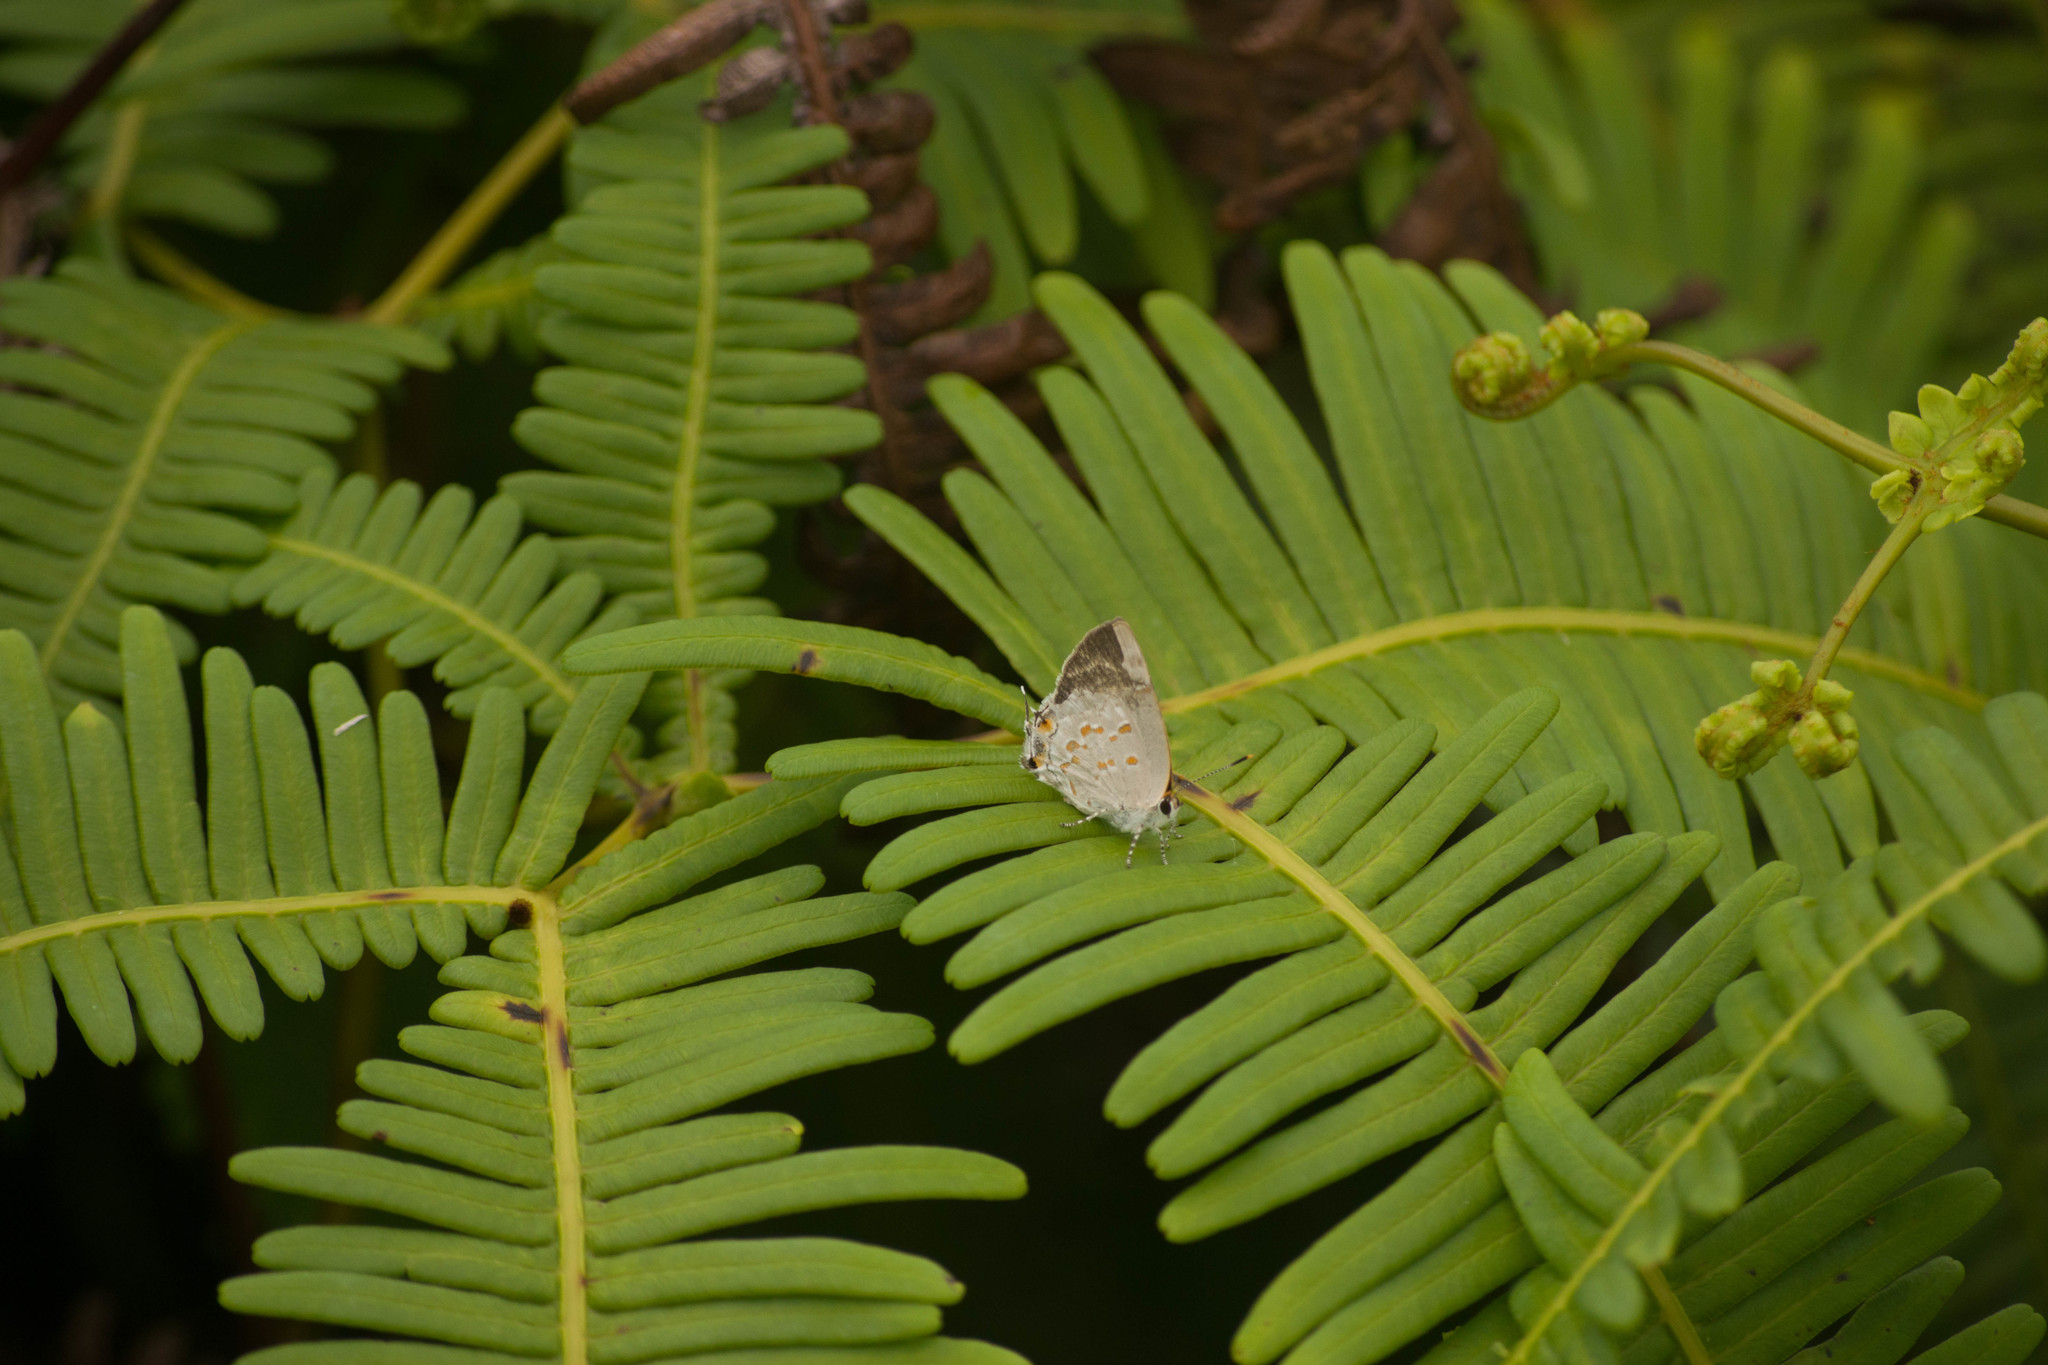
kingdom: Plantae
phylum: Tracheophyta
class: Polypodiopsida
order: Gleicheniales
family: Gleicheniaceae
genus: Dicranopteris
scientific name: Dicranopteris linearis
